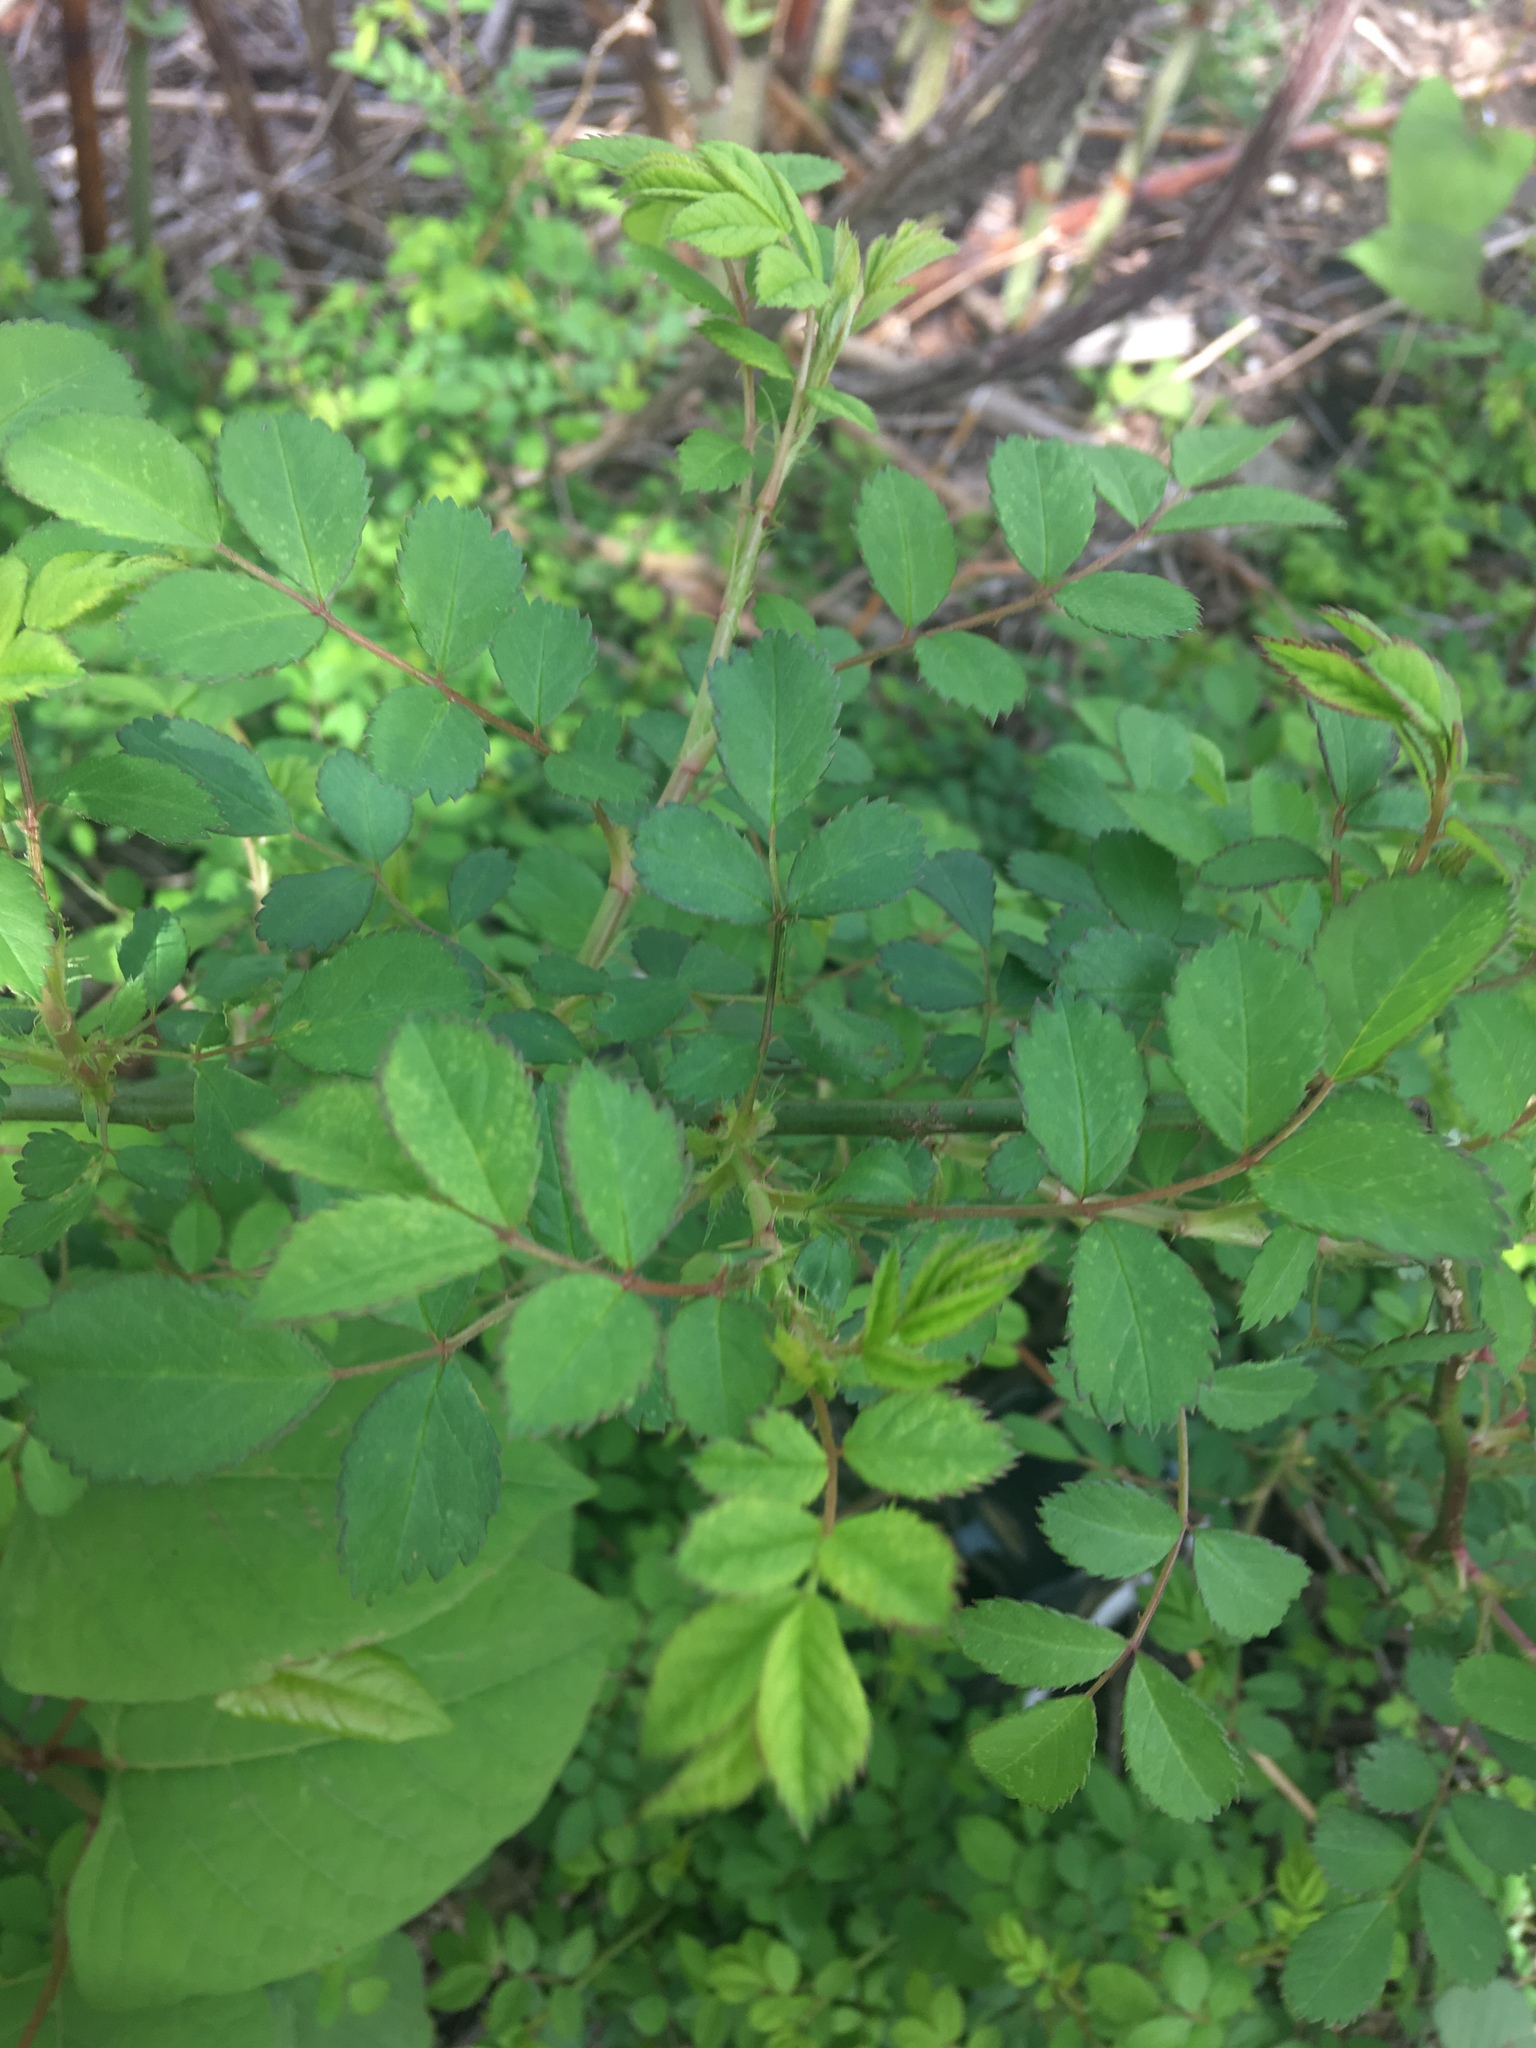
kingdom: Plantae
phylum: Tracheophyta
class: Magnoliopsida
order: Rosales
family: Rosaceae
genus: Rosa
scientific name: Rosa multiflora
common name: Multiflora rose
